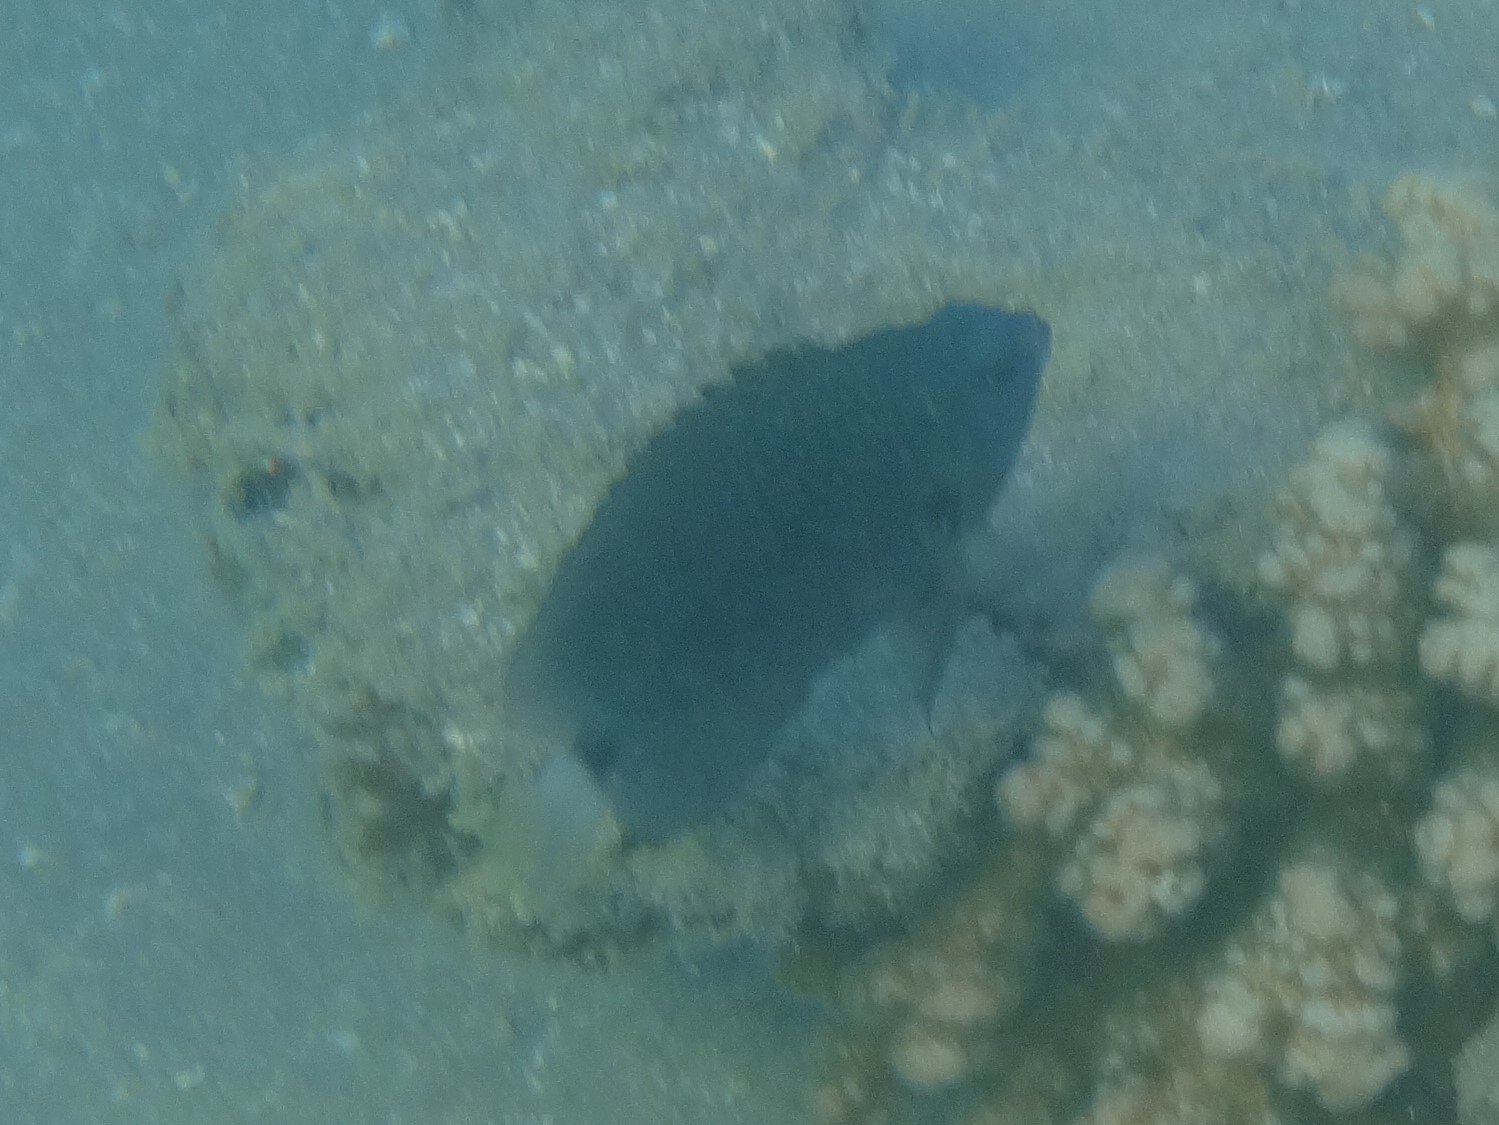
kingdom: Animalia
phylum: Chordata
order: Perciformes
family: Pomacentridae
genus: Pomacentrus
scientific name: Pomacentrus albicaudatus
